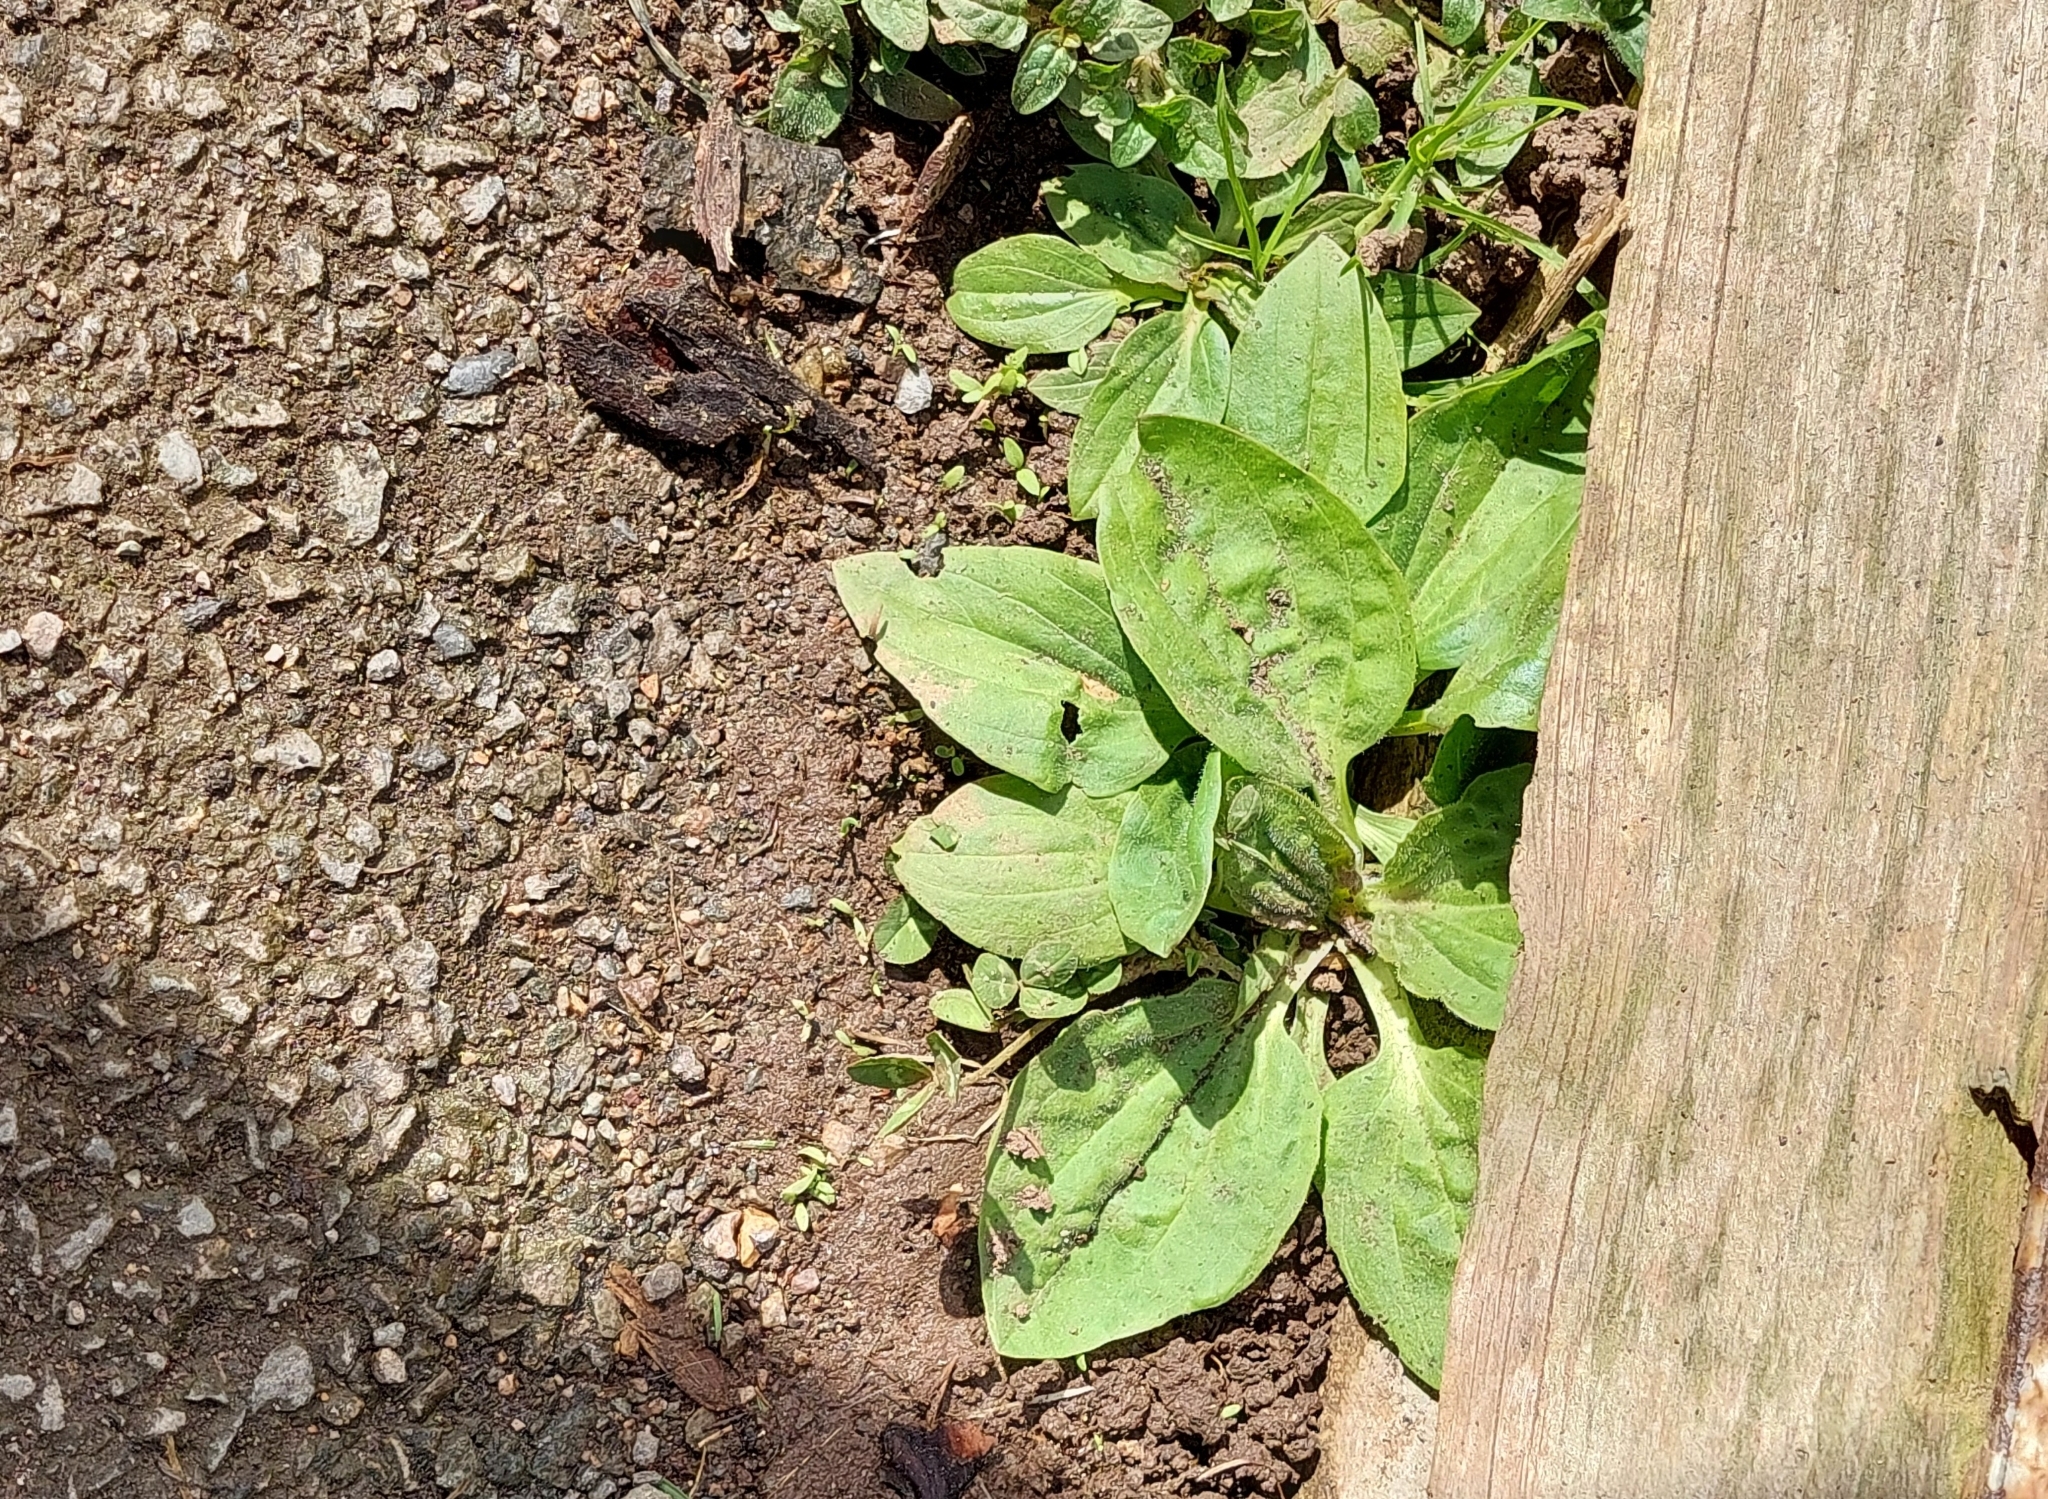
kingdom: Plantae
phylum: Tracheophyta
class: Magnoliopsida
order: Lamiales
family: Plantaginaceae
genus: Plantago
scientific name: Plantago major
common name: Common plantain
